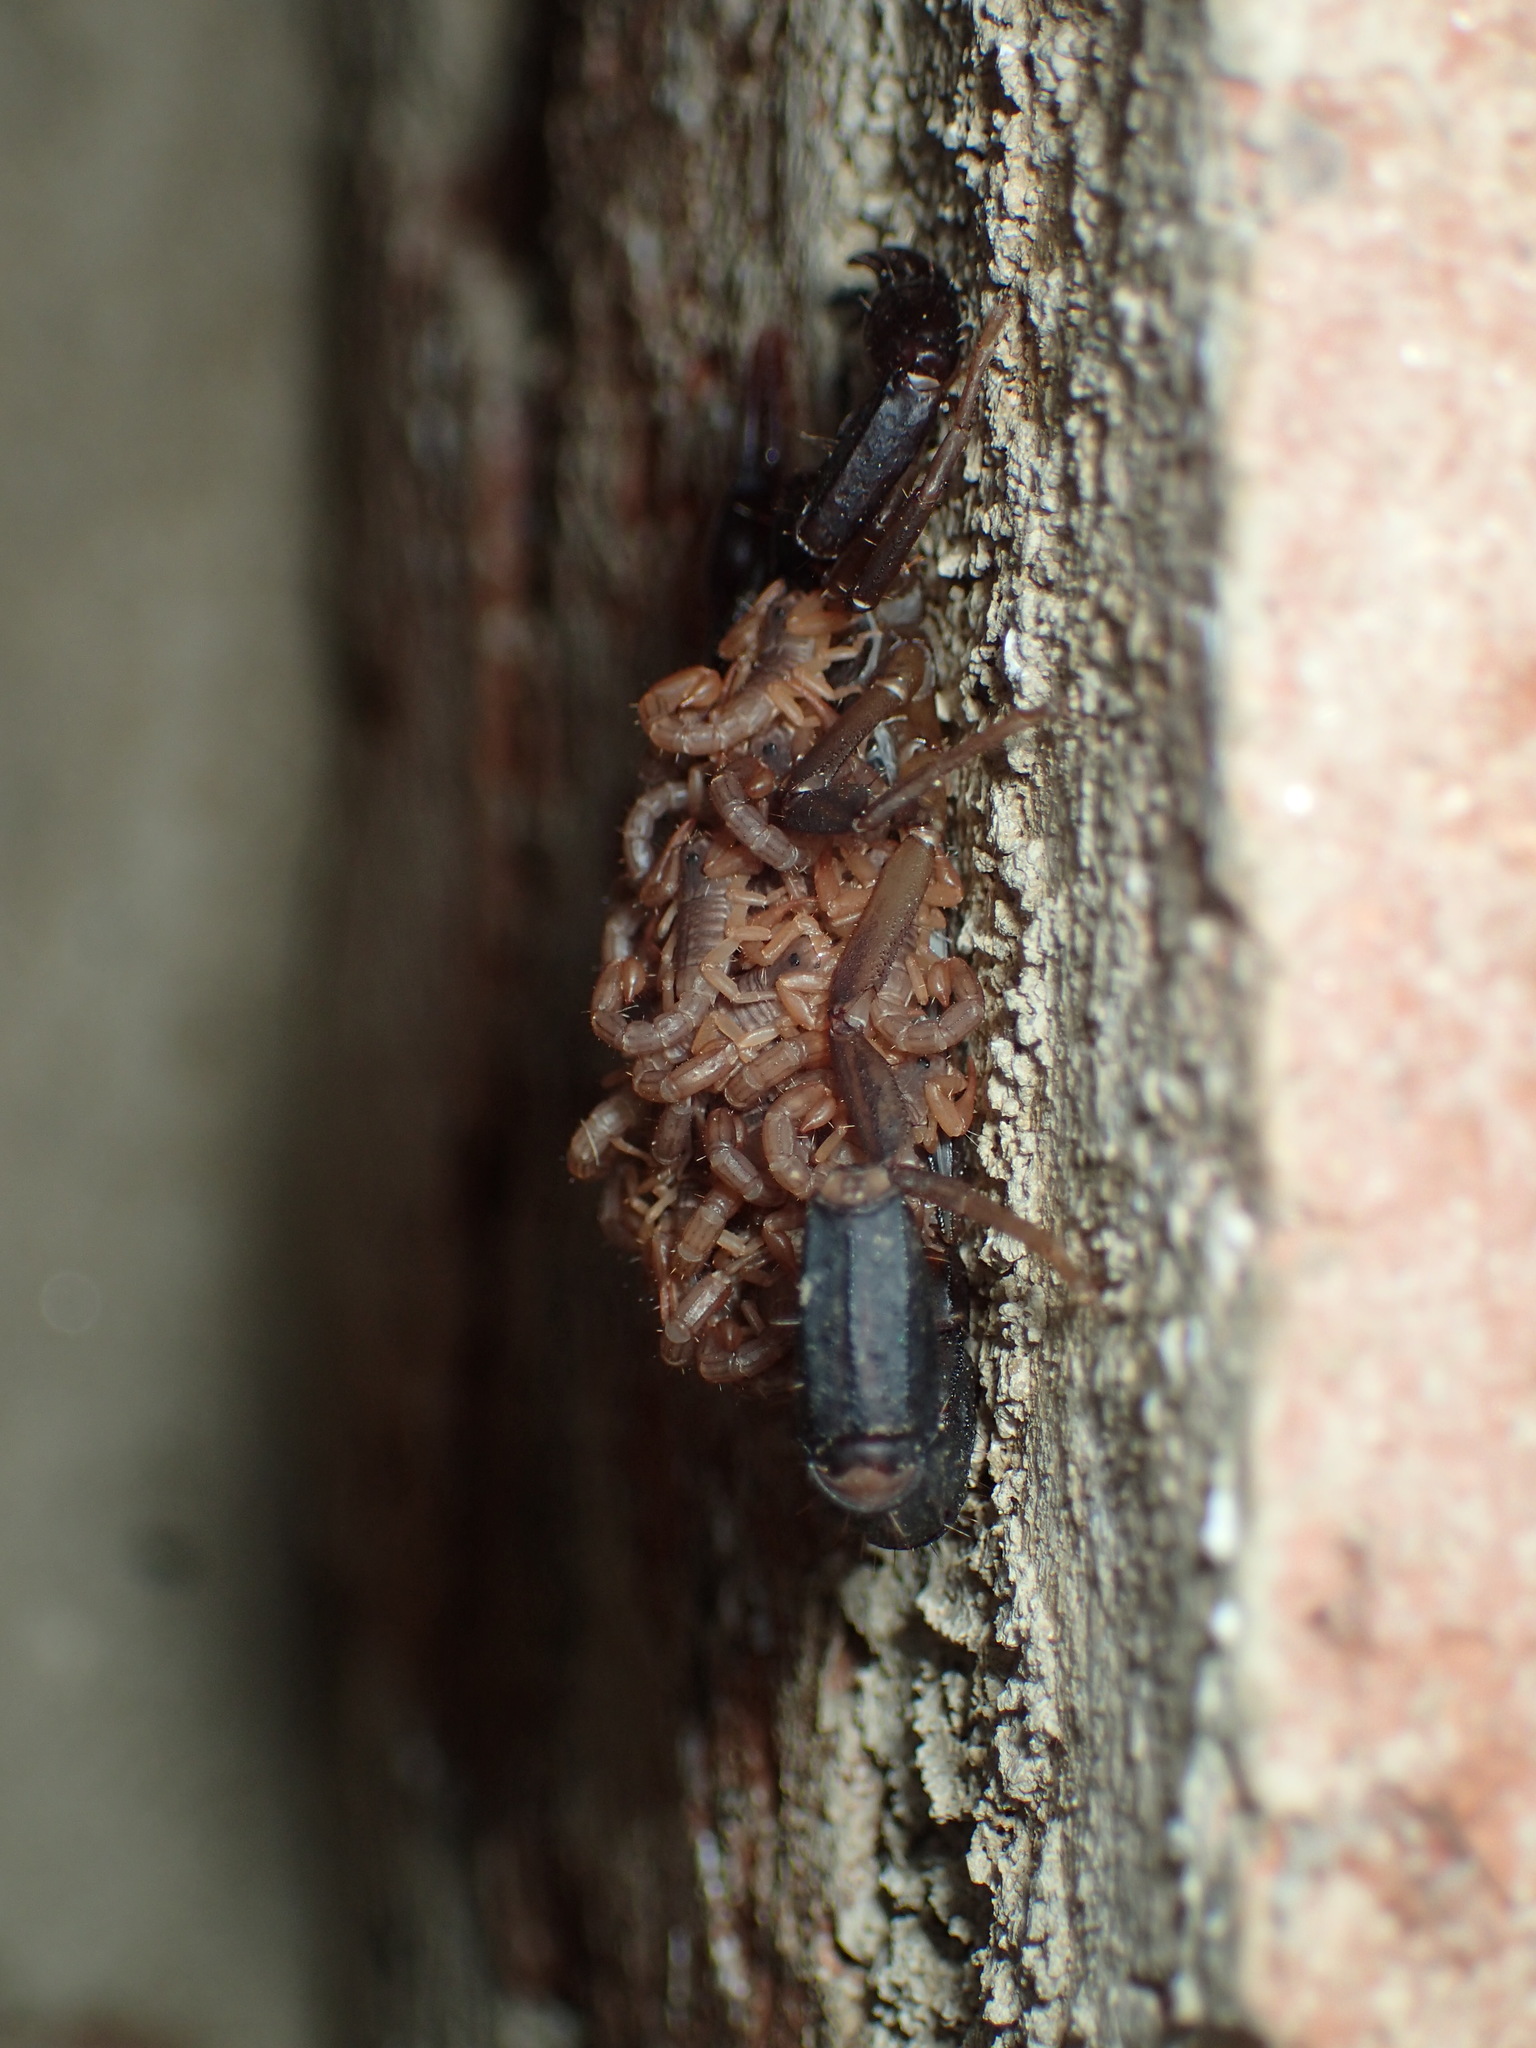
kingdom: Animalia
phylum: Arthropoda
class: Arachnida
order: Scorpiones
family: Vaejovidae
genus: Vaejovis
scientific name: Vaejovis carolinianus
